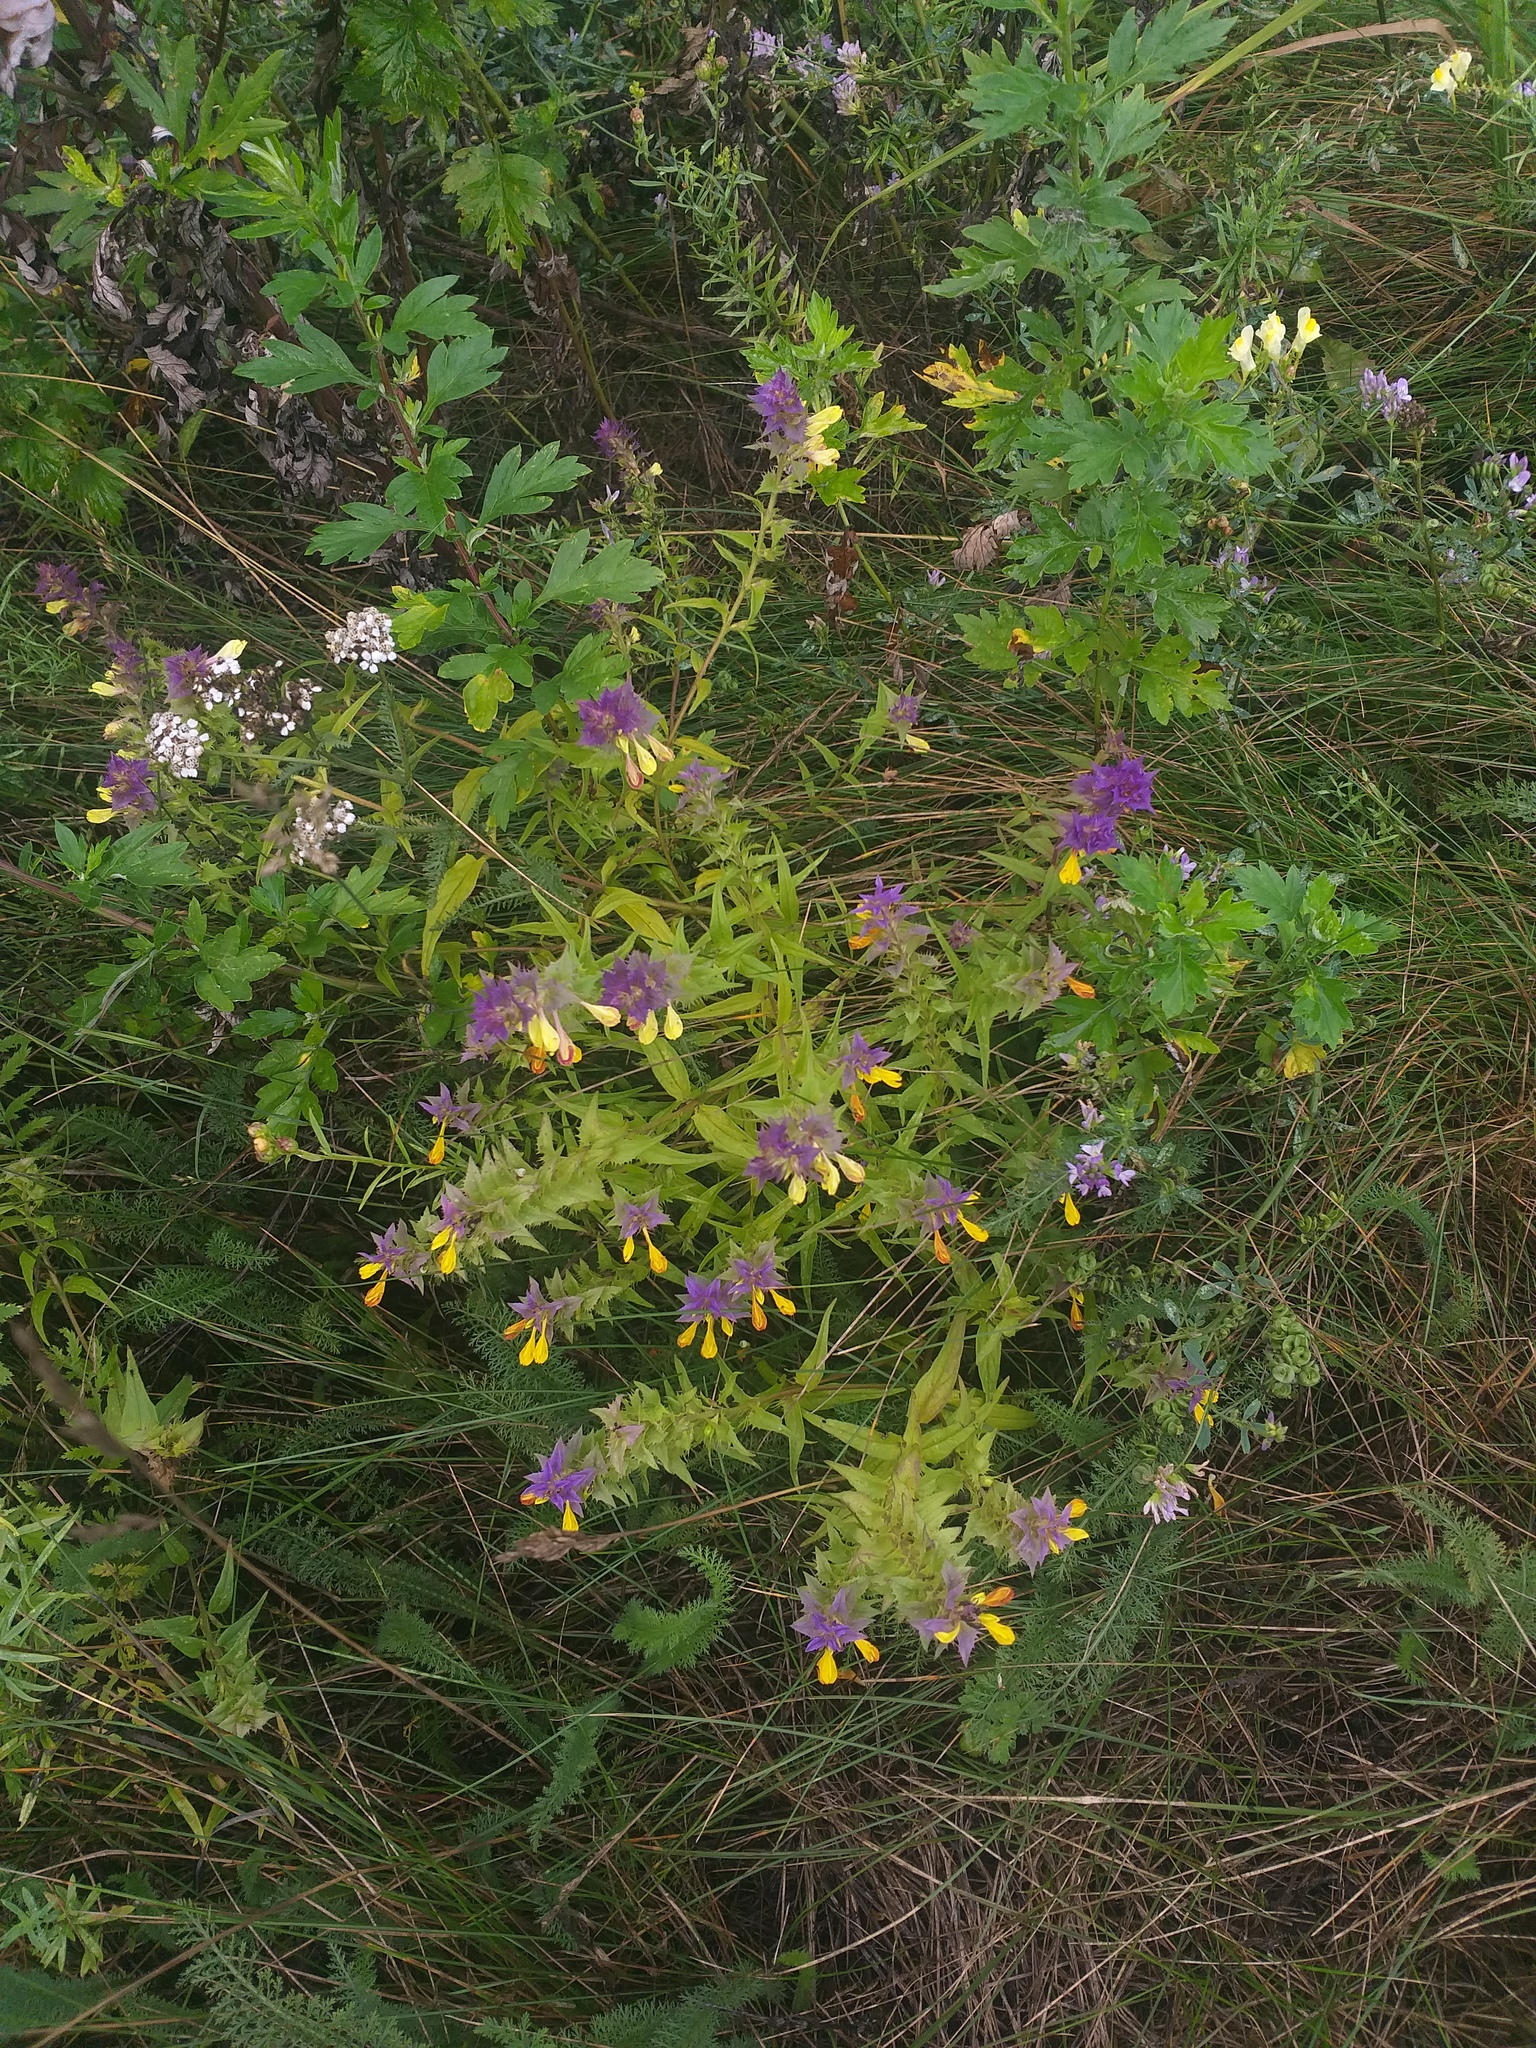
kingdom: Plantae
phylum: Tracheophyta
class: Magnoliopsida
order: Lamiales
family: Orobanchaceae
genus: Melampyrum
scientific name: Melampyrum nemorosum
